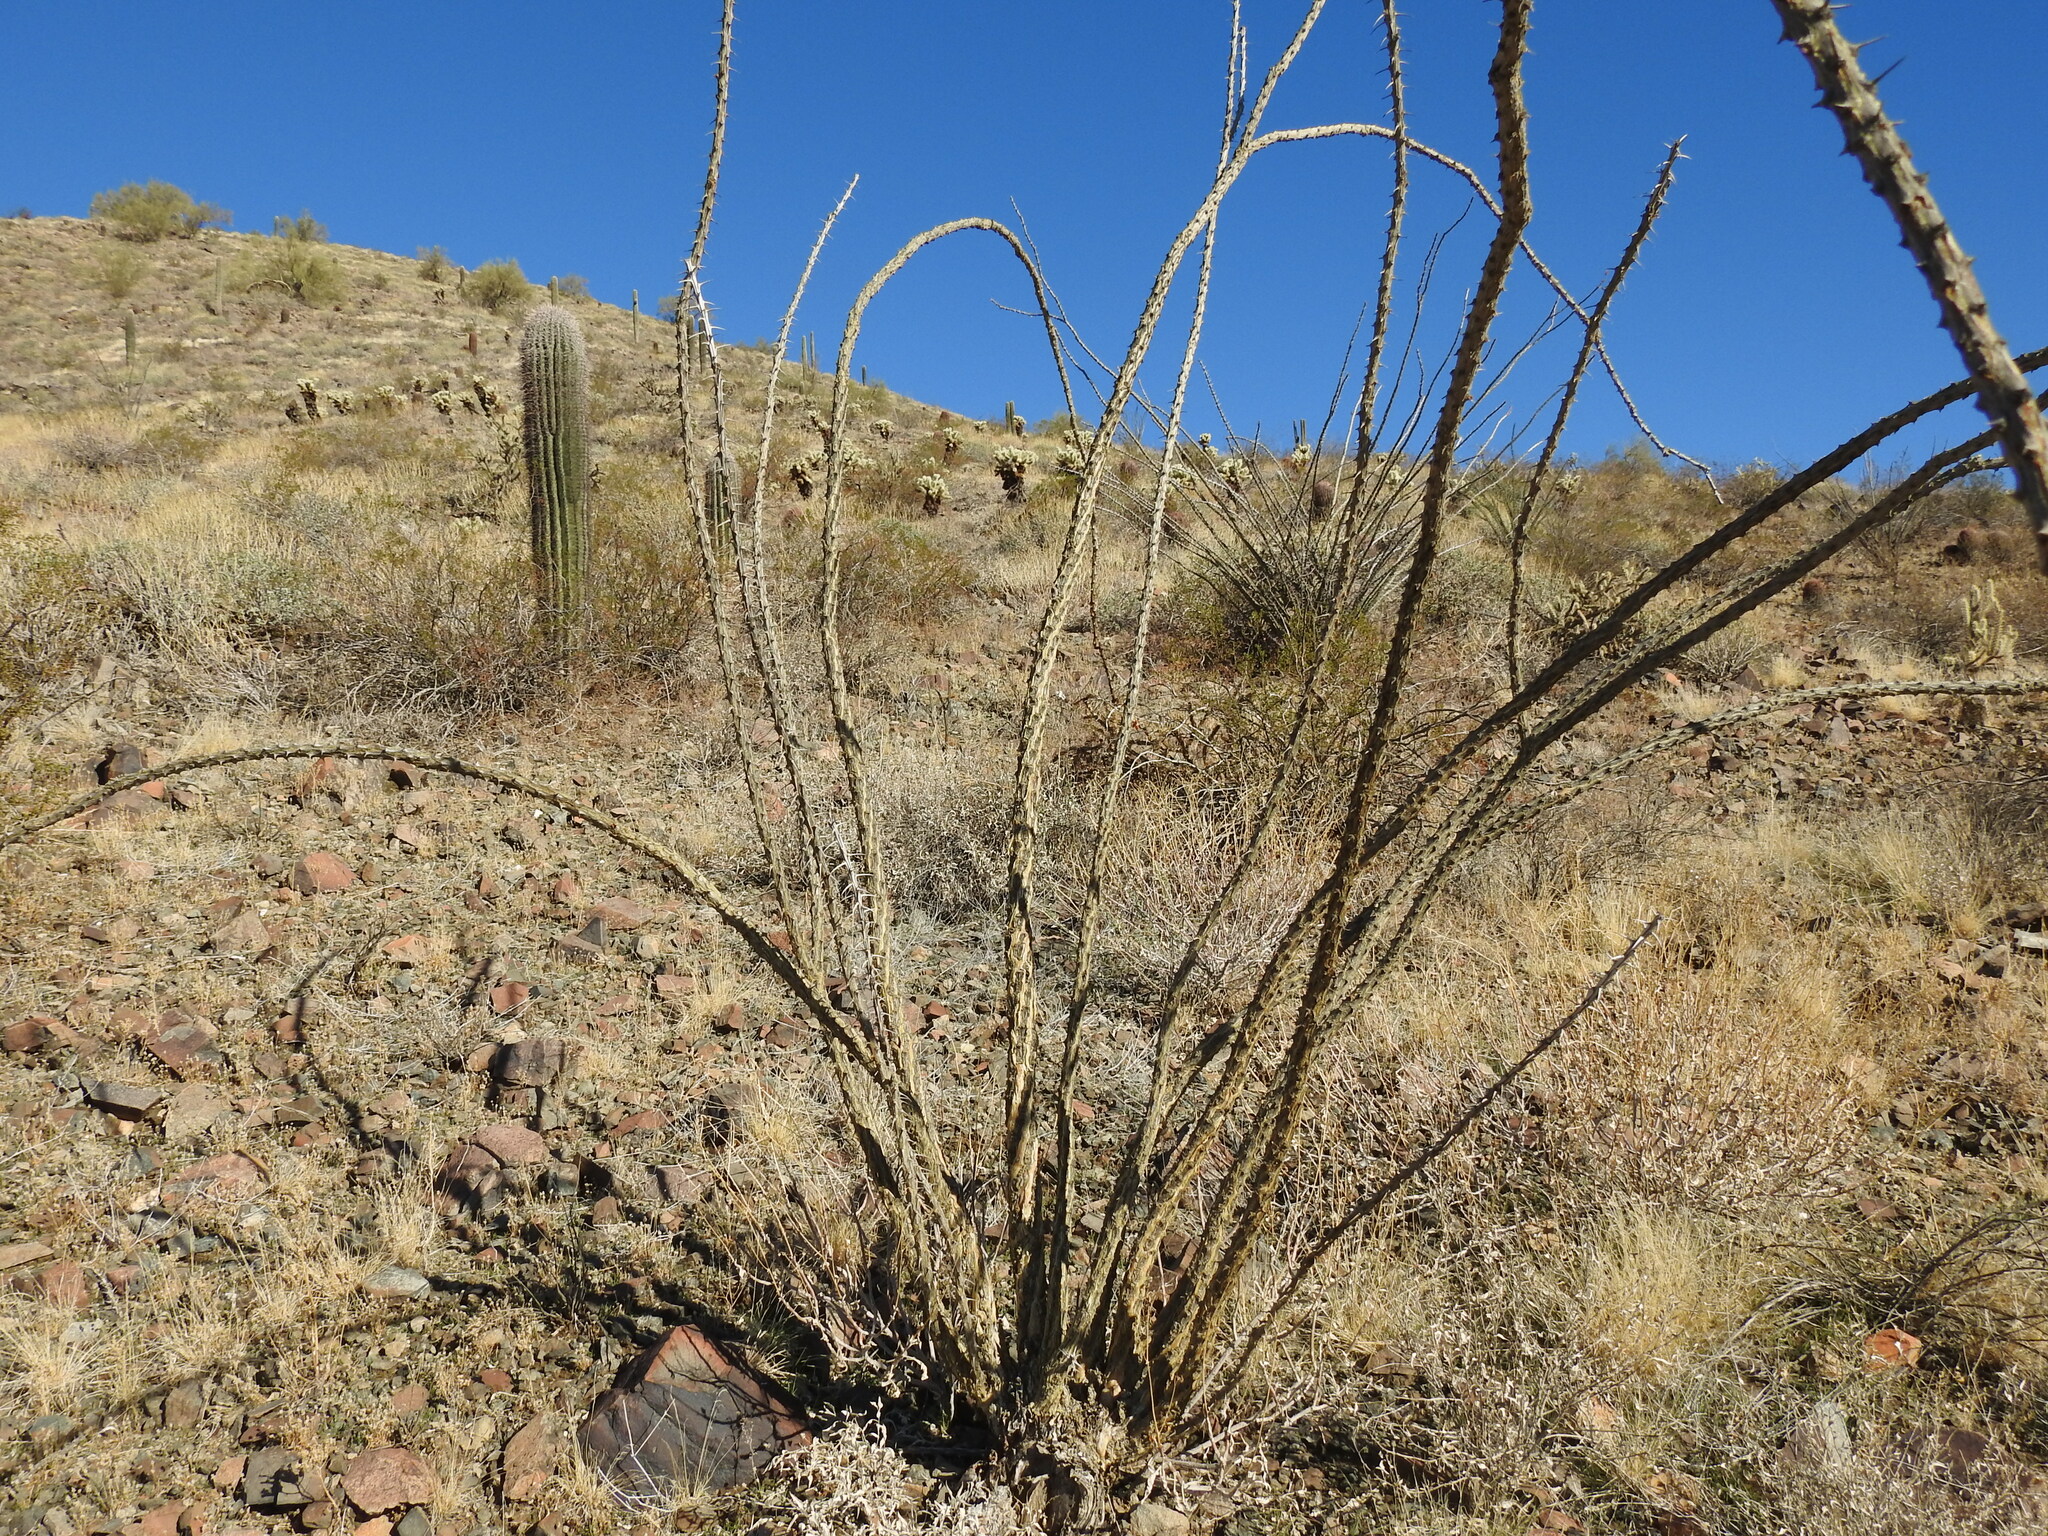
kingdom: Plantae
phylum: Tracheophyta
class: Magnoliopsida
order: Ericales
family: Fouquieriaceae
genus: Fouquieria
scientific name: Fouquieria splendens
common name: Vine-cactus
